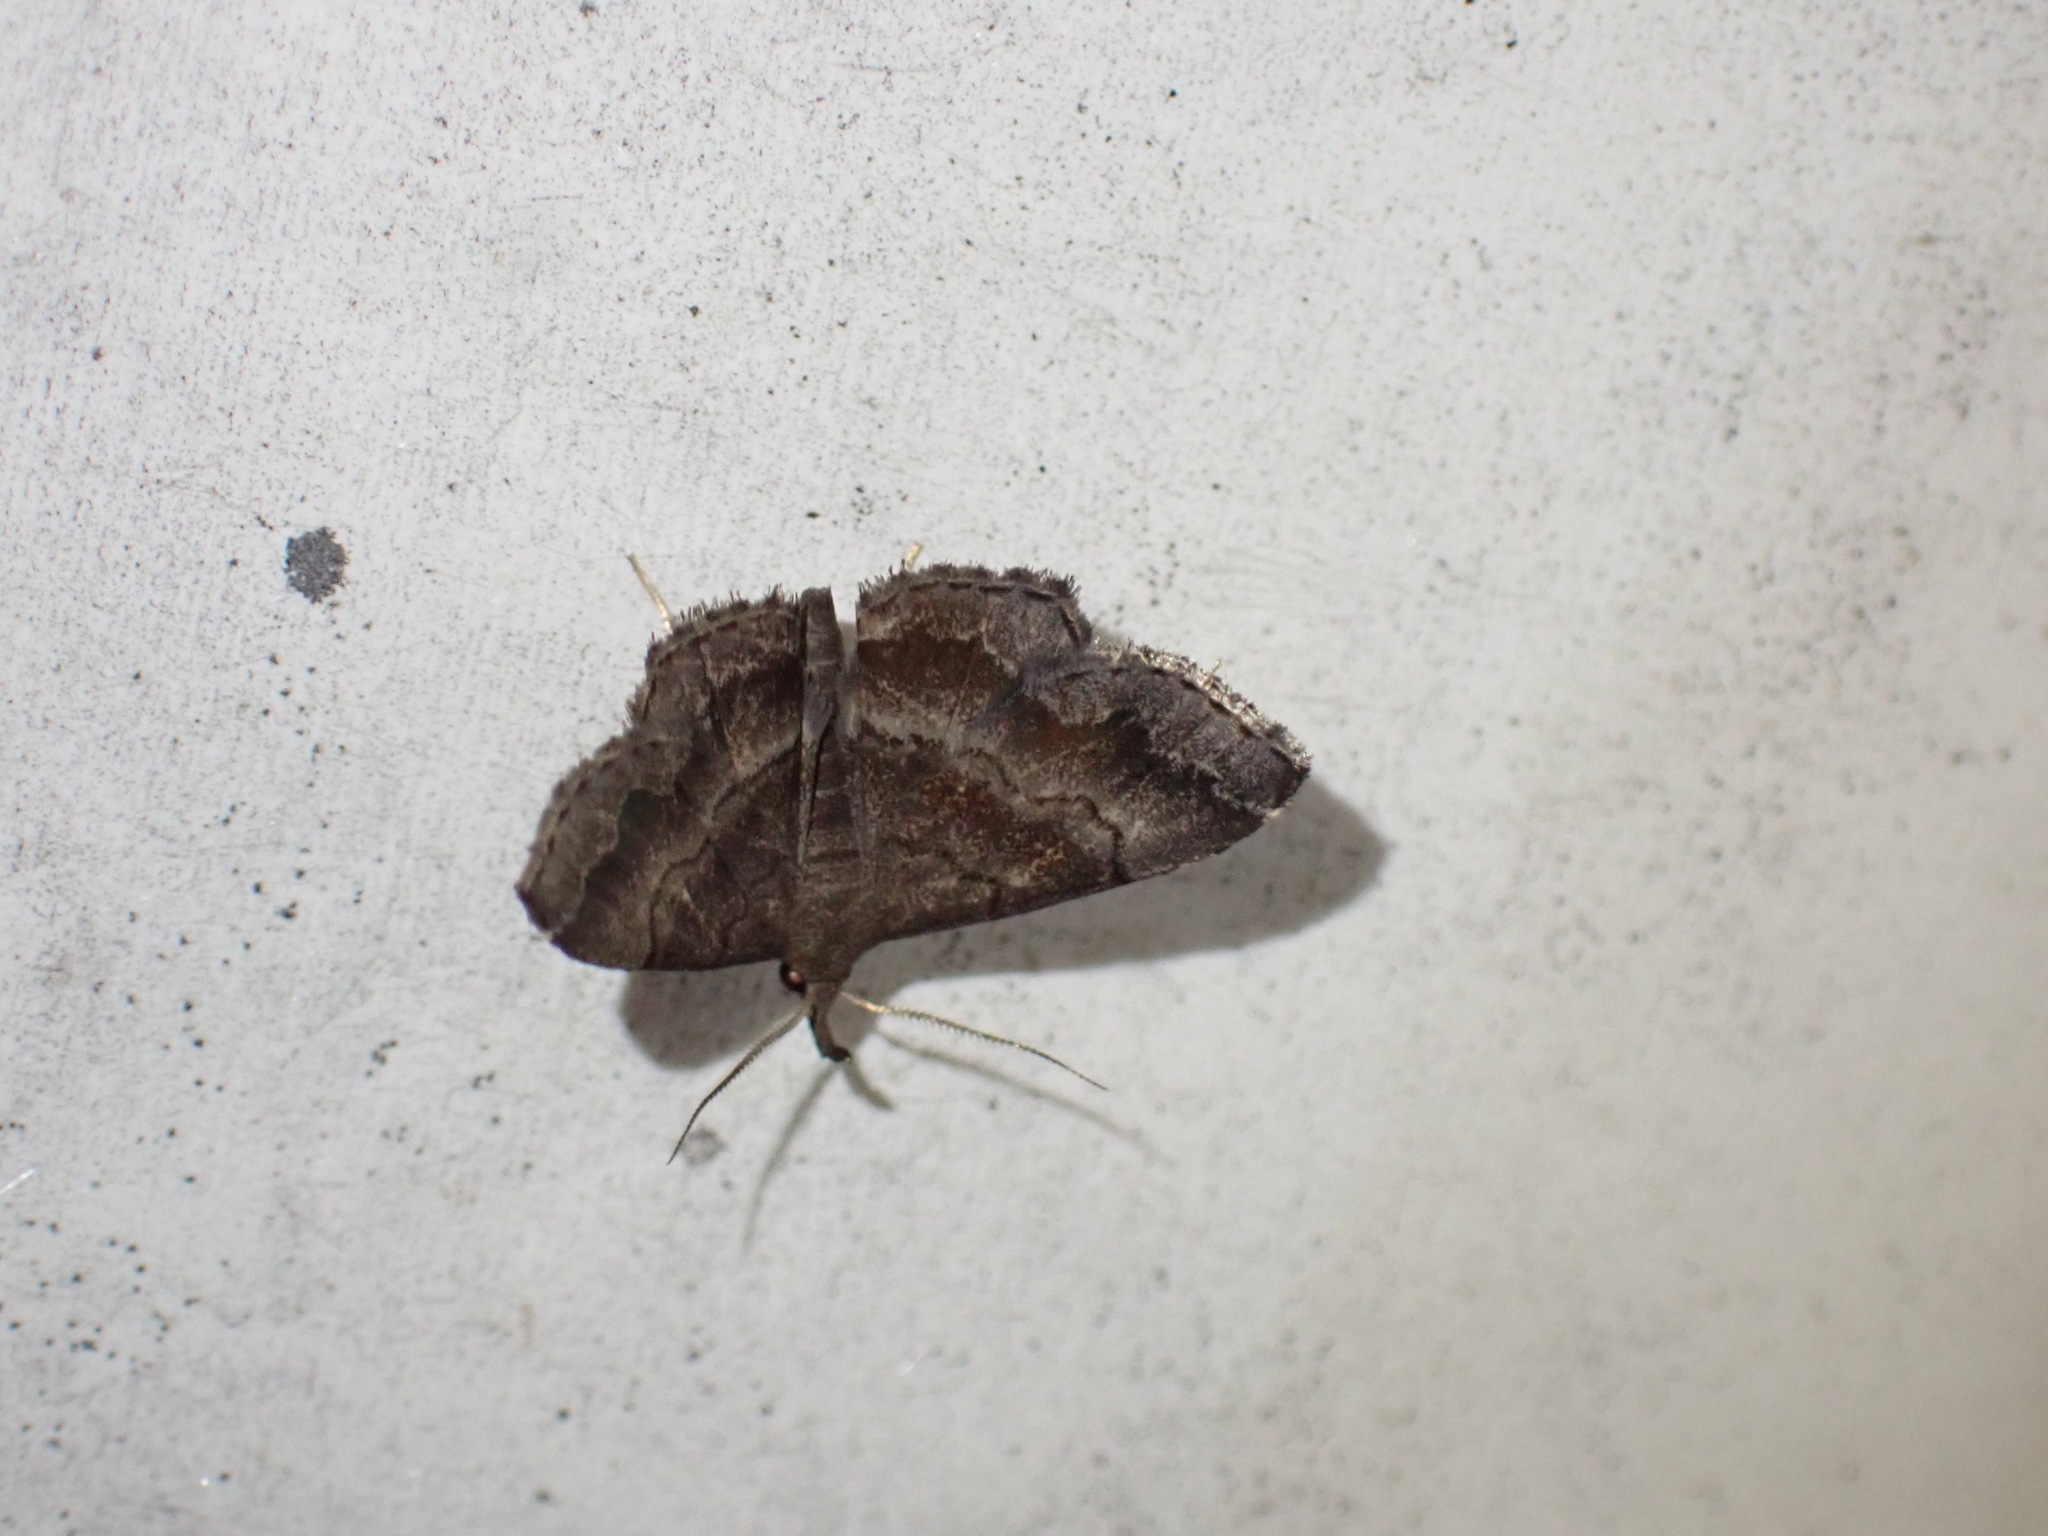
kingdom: Animalia
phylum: Arthropoda
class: Insecta
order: Lepidoptera
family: Erebidae
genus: Phalaenostola
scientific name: Phalaenostola larentioides
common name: Black-banded owlet
